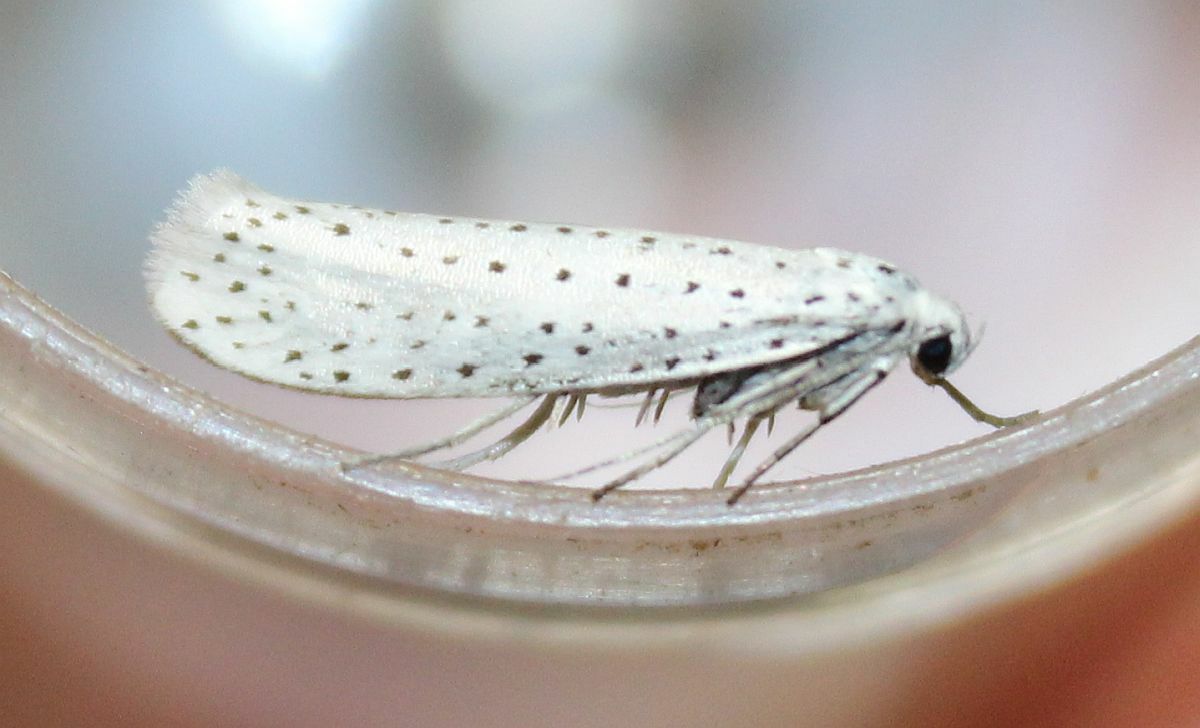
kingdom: Animalia
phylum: Arthropoda
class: Insecta
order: Lepidoptera
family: Yponomeutidae
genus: Yponomeuta
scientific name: Yponomeuta evonymella
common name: Bird-cherry ermine
